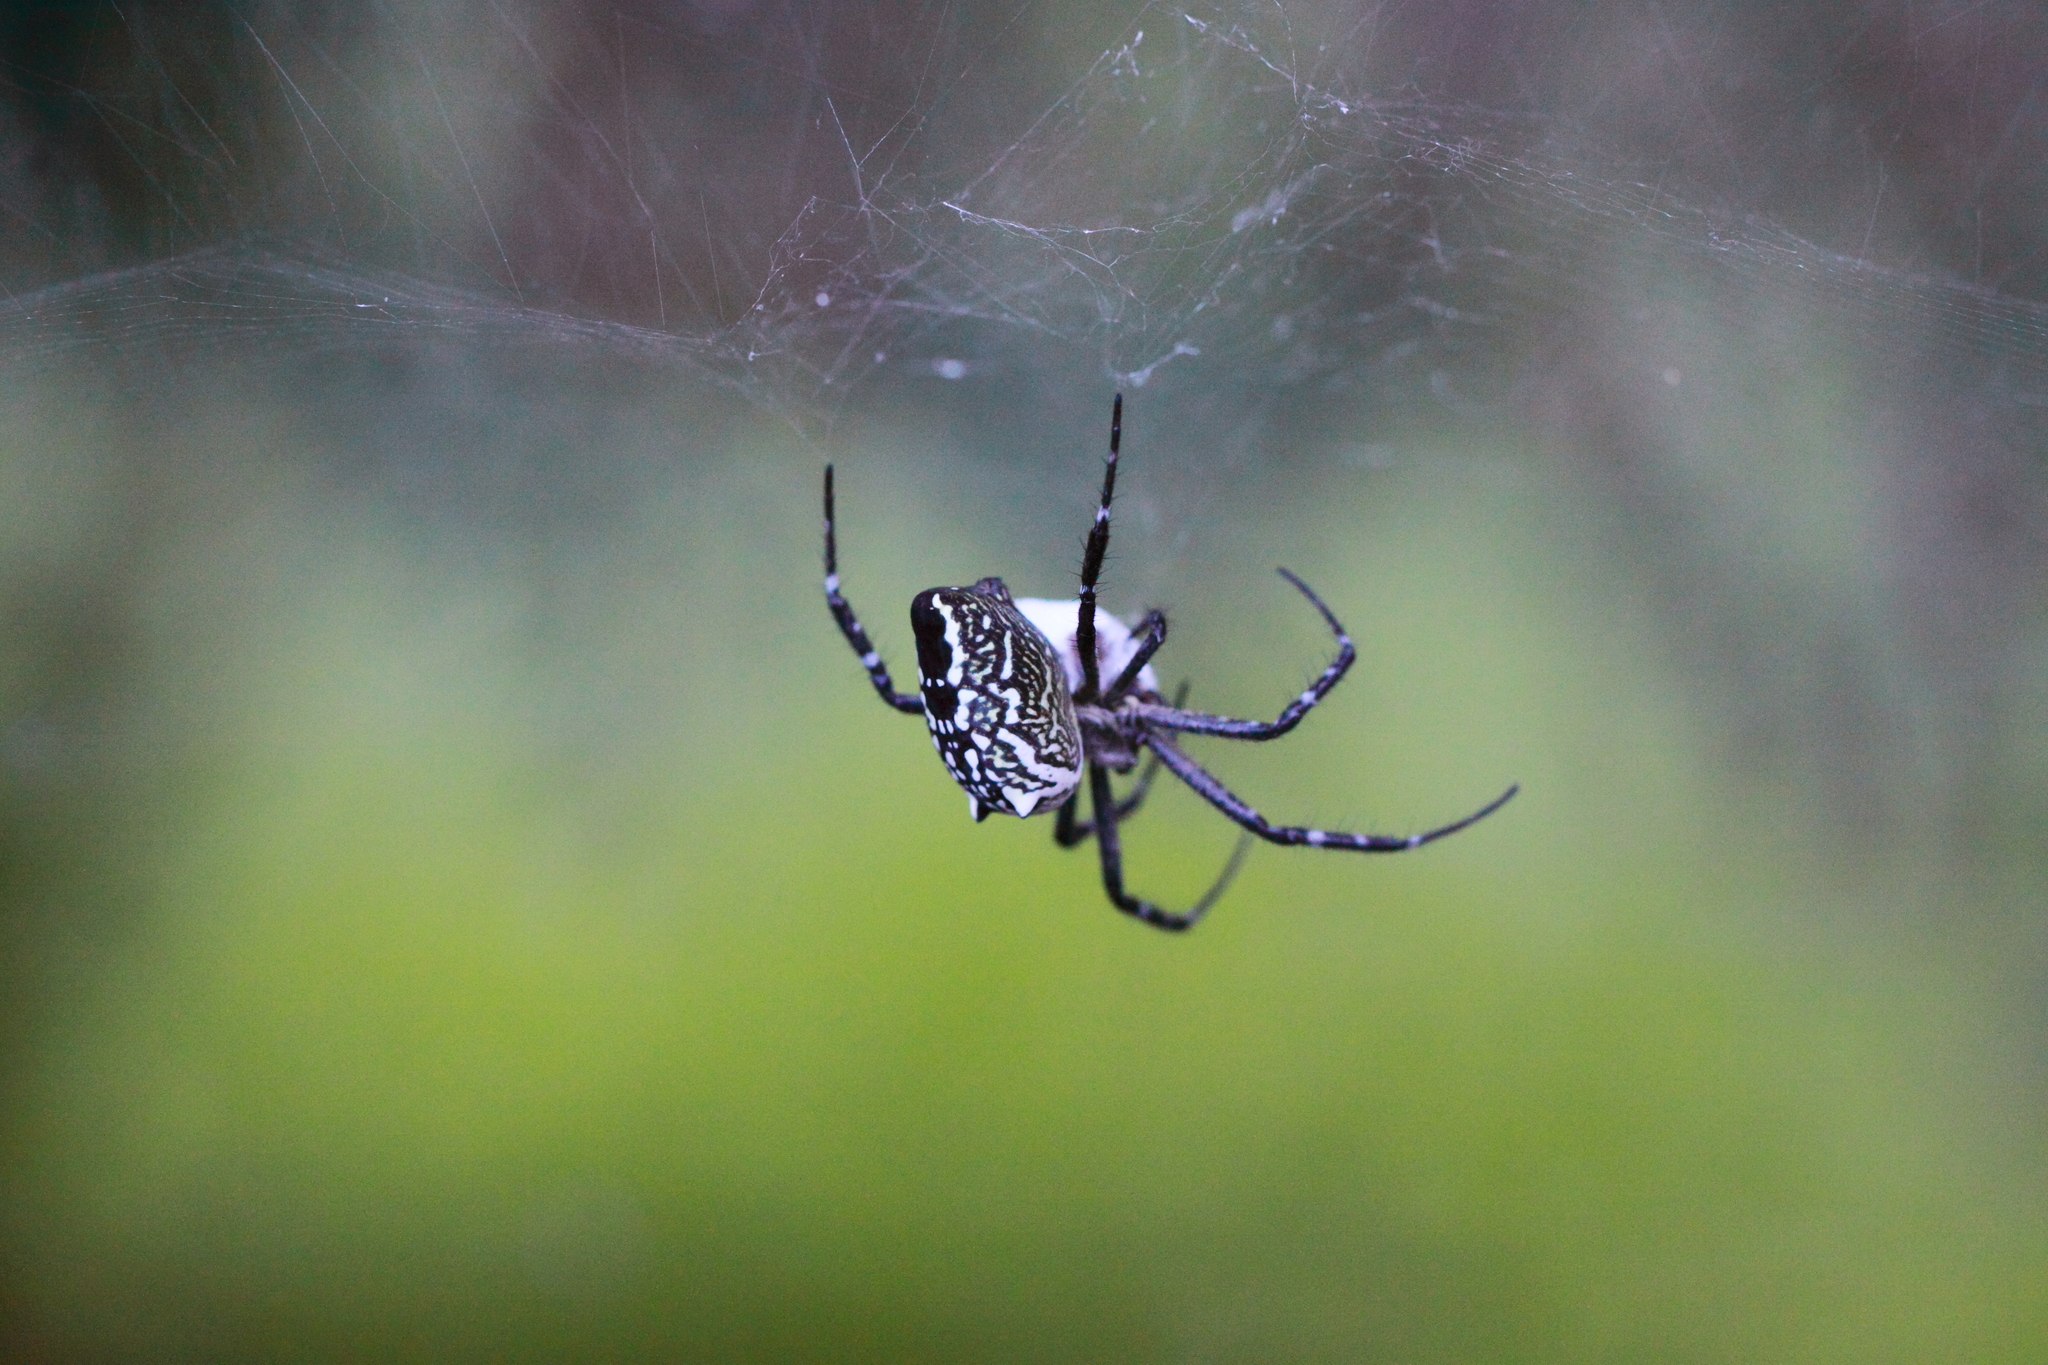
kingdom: Chromista
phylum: Ochrophyta
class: Dictyochophyceae
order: Pedinellales
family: Cyrtophoraceae
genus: Cyrtophora
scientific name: Cyrtophora moluccensis
